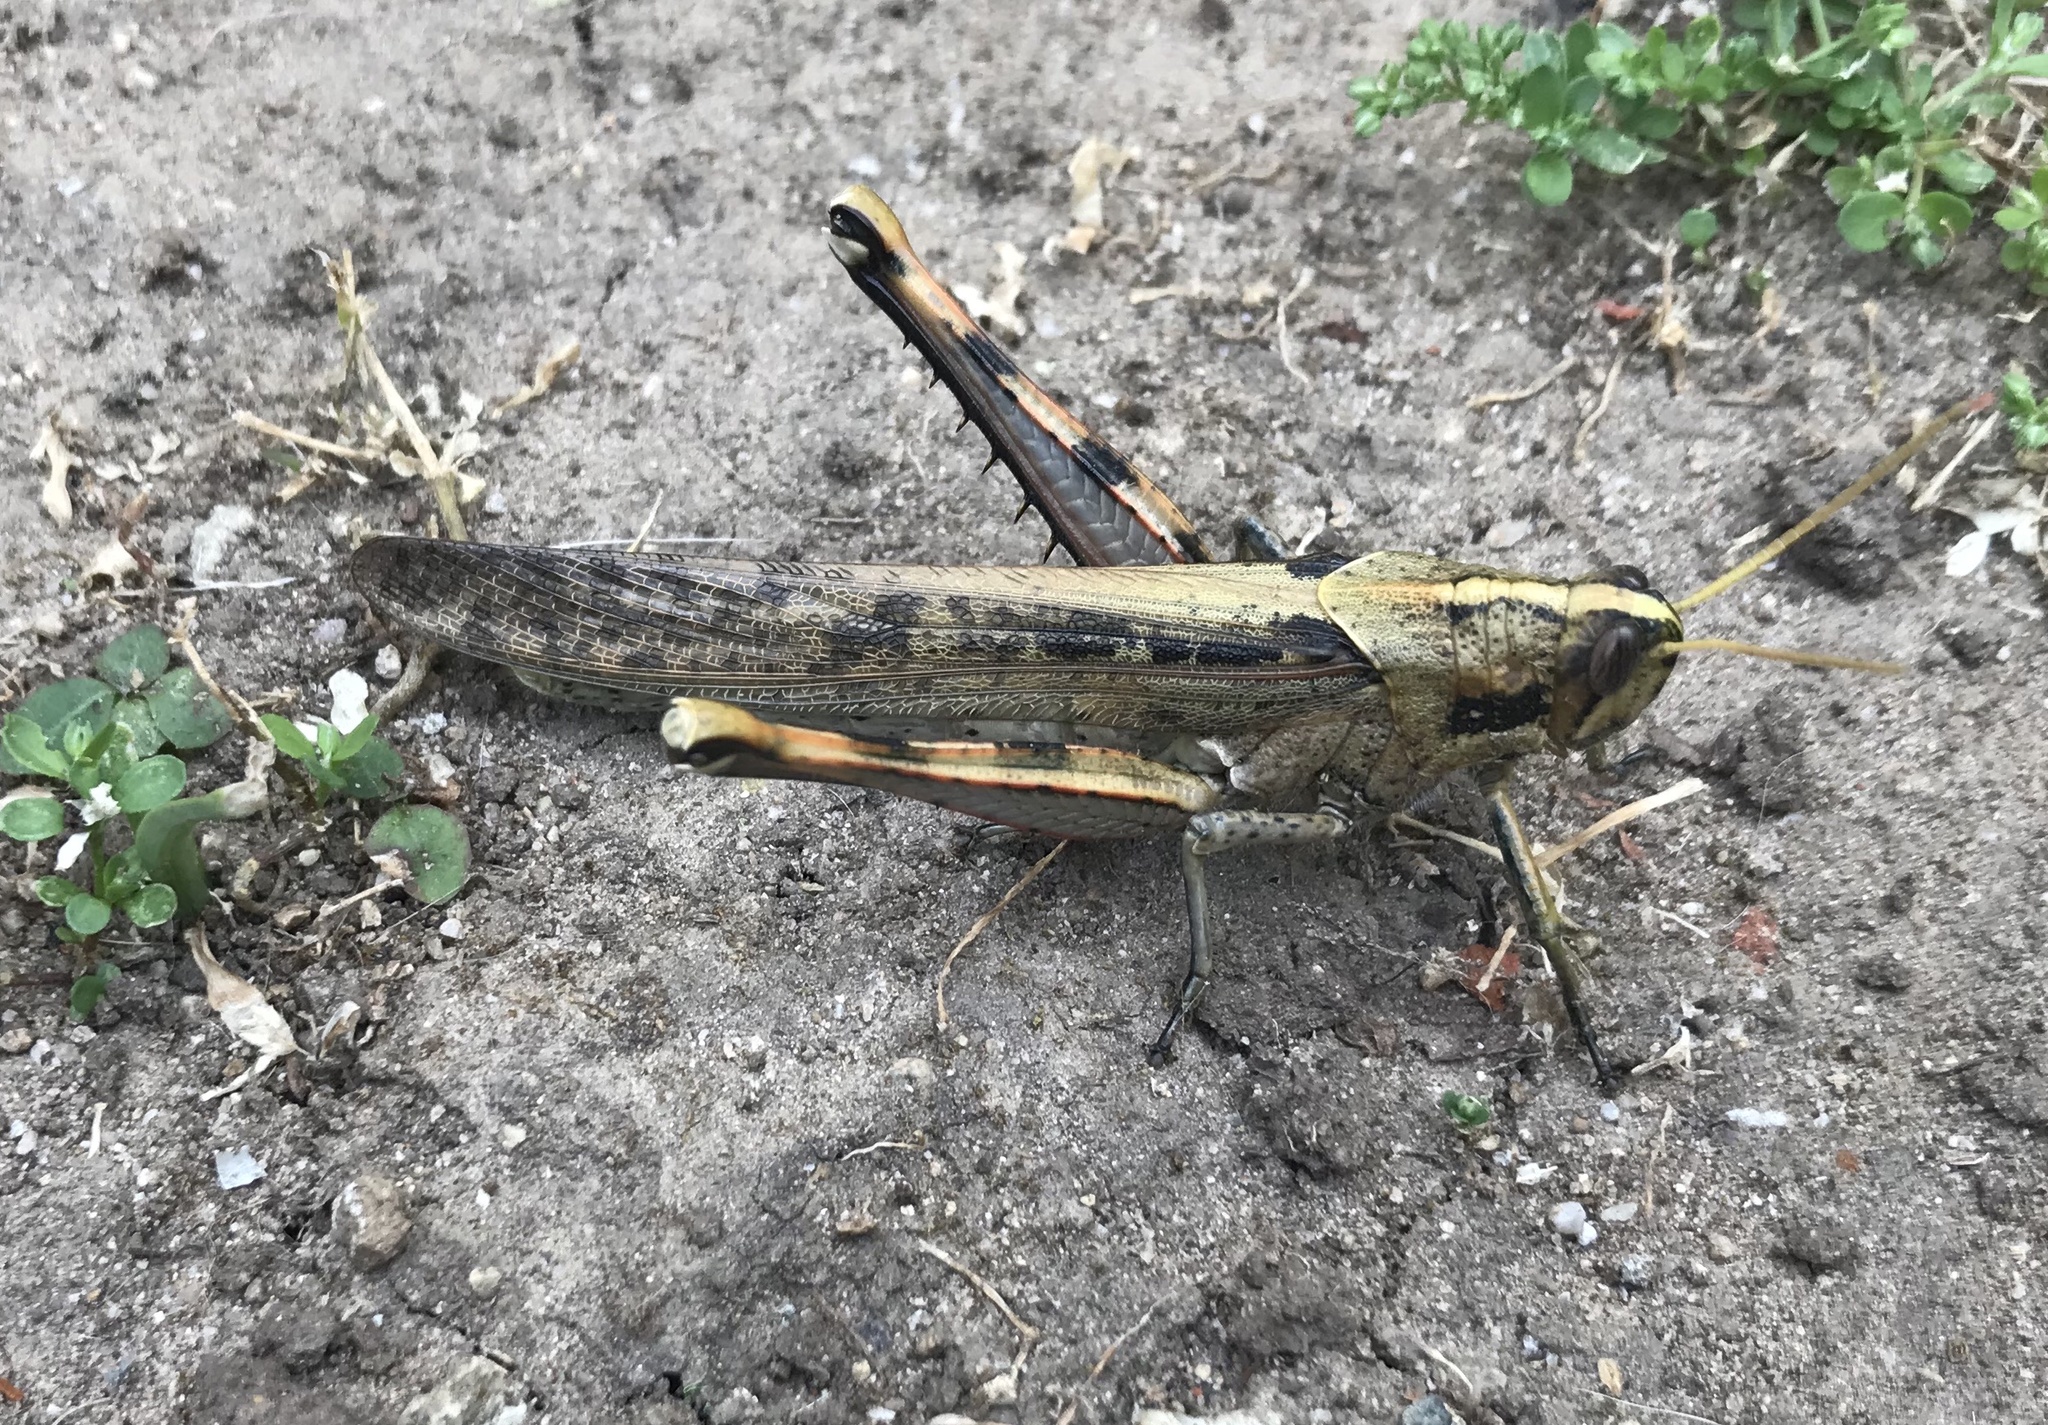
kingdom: Animalia
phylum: Arthropoda
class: Insecta
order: Orthoptera
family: Acrididae
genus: Schistocerca
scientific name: Schistocerca nitens
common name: Vagrant grasshopper
